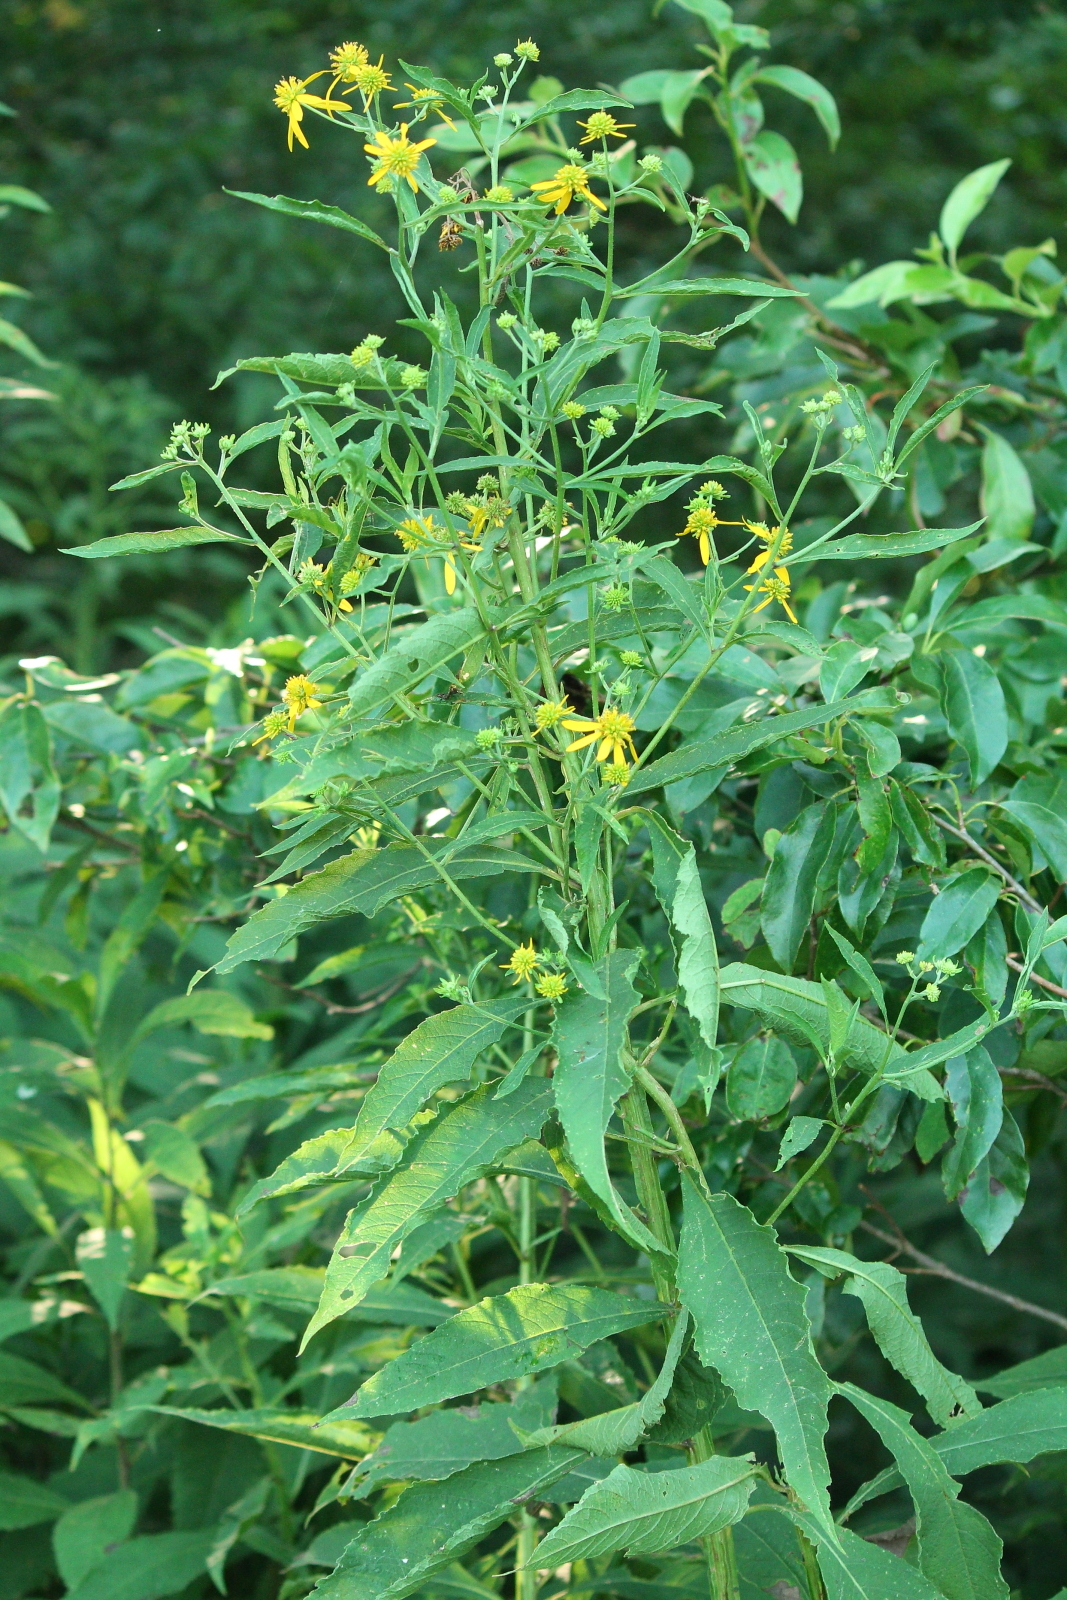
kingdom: Plantae
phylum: Tracheophyta
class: Magnoliopsida
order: Asterales
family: Asteraceae
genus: Verbesina
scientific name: Verbesina alternifolia
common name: Wingstem
